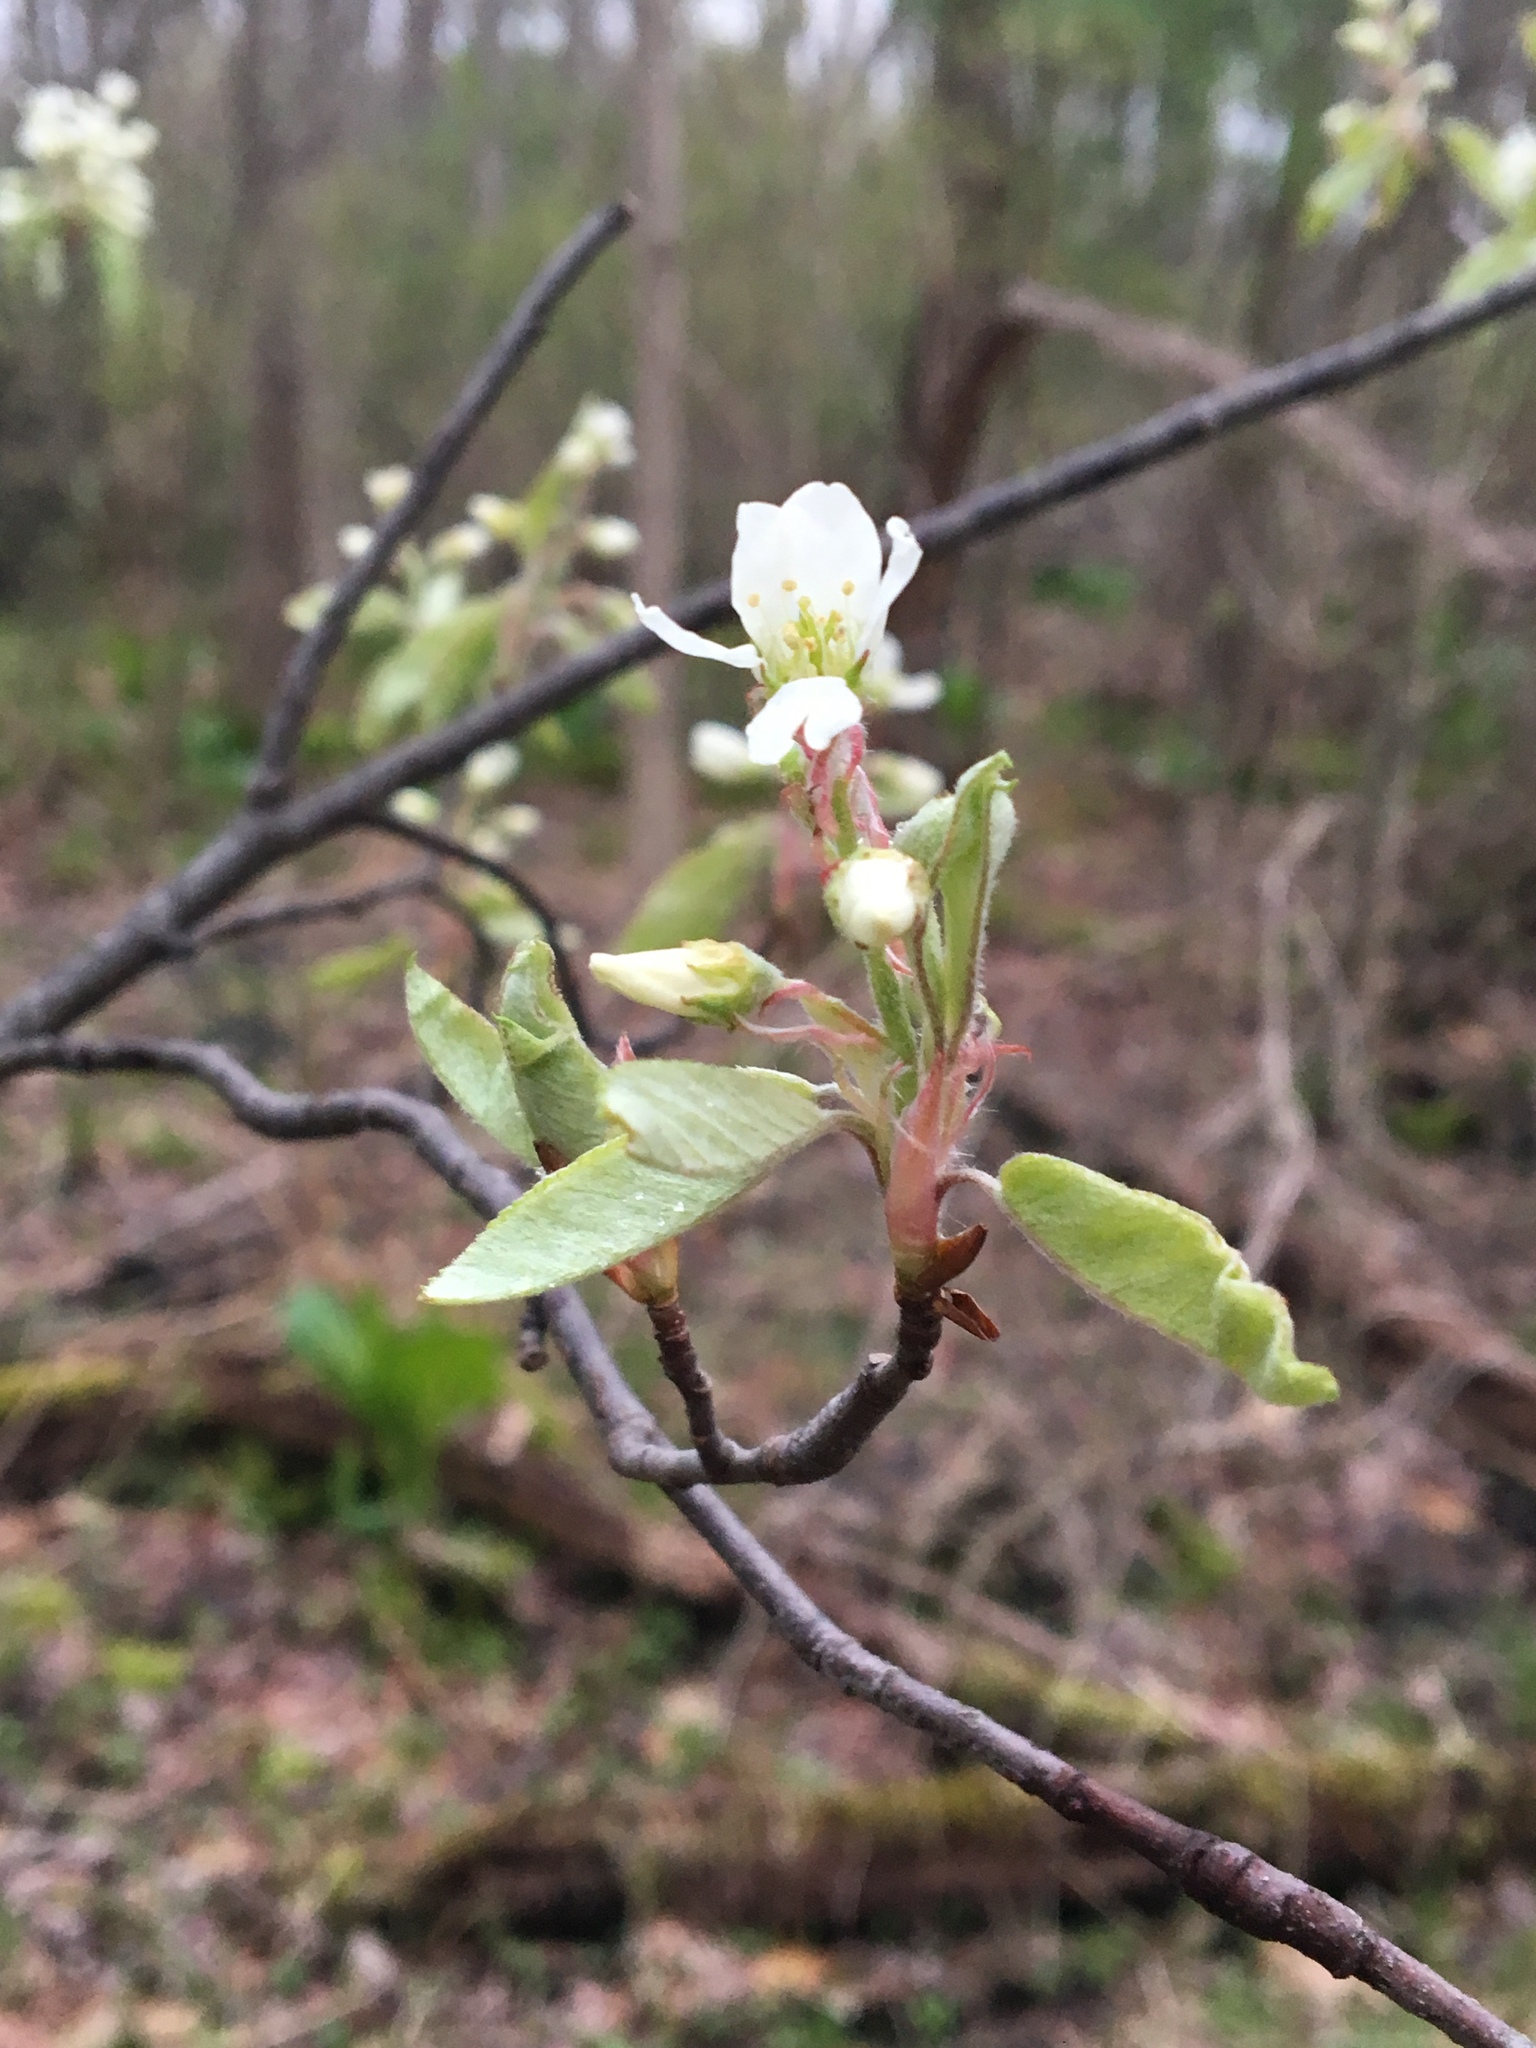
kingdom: Plantae
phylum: Tracheophyta
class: Magnoliopsida
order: Rosales
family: Rosaceae
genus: Amelanchier
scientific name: Amelanchier arborea
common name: Downy serviceberry
